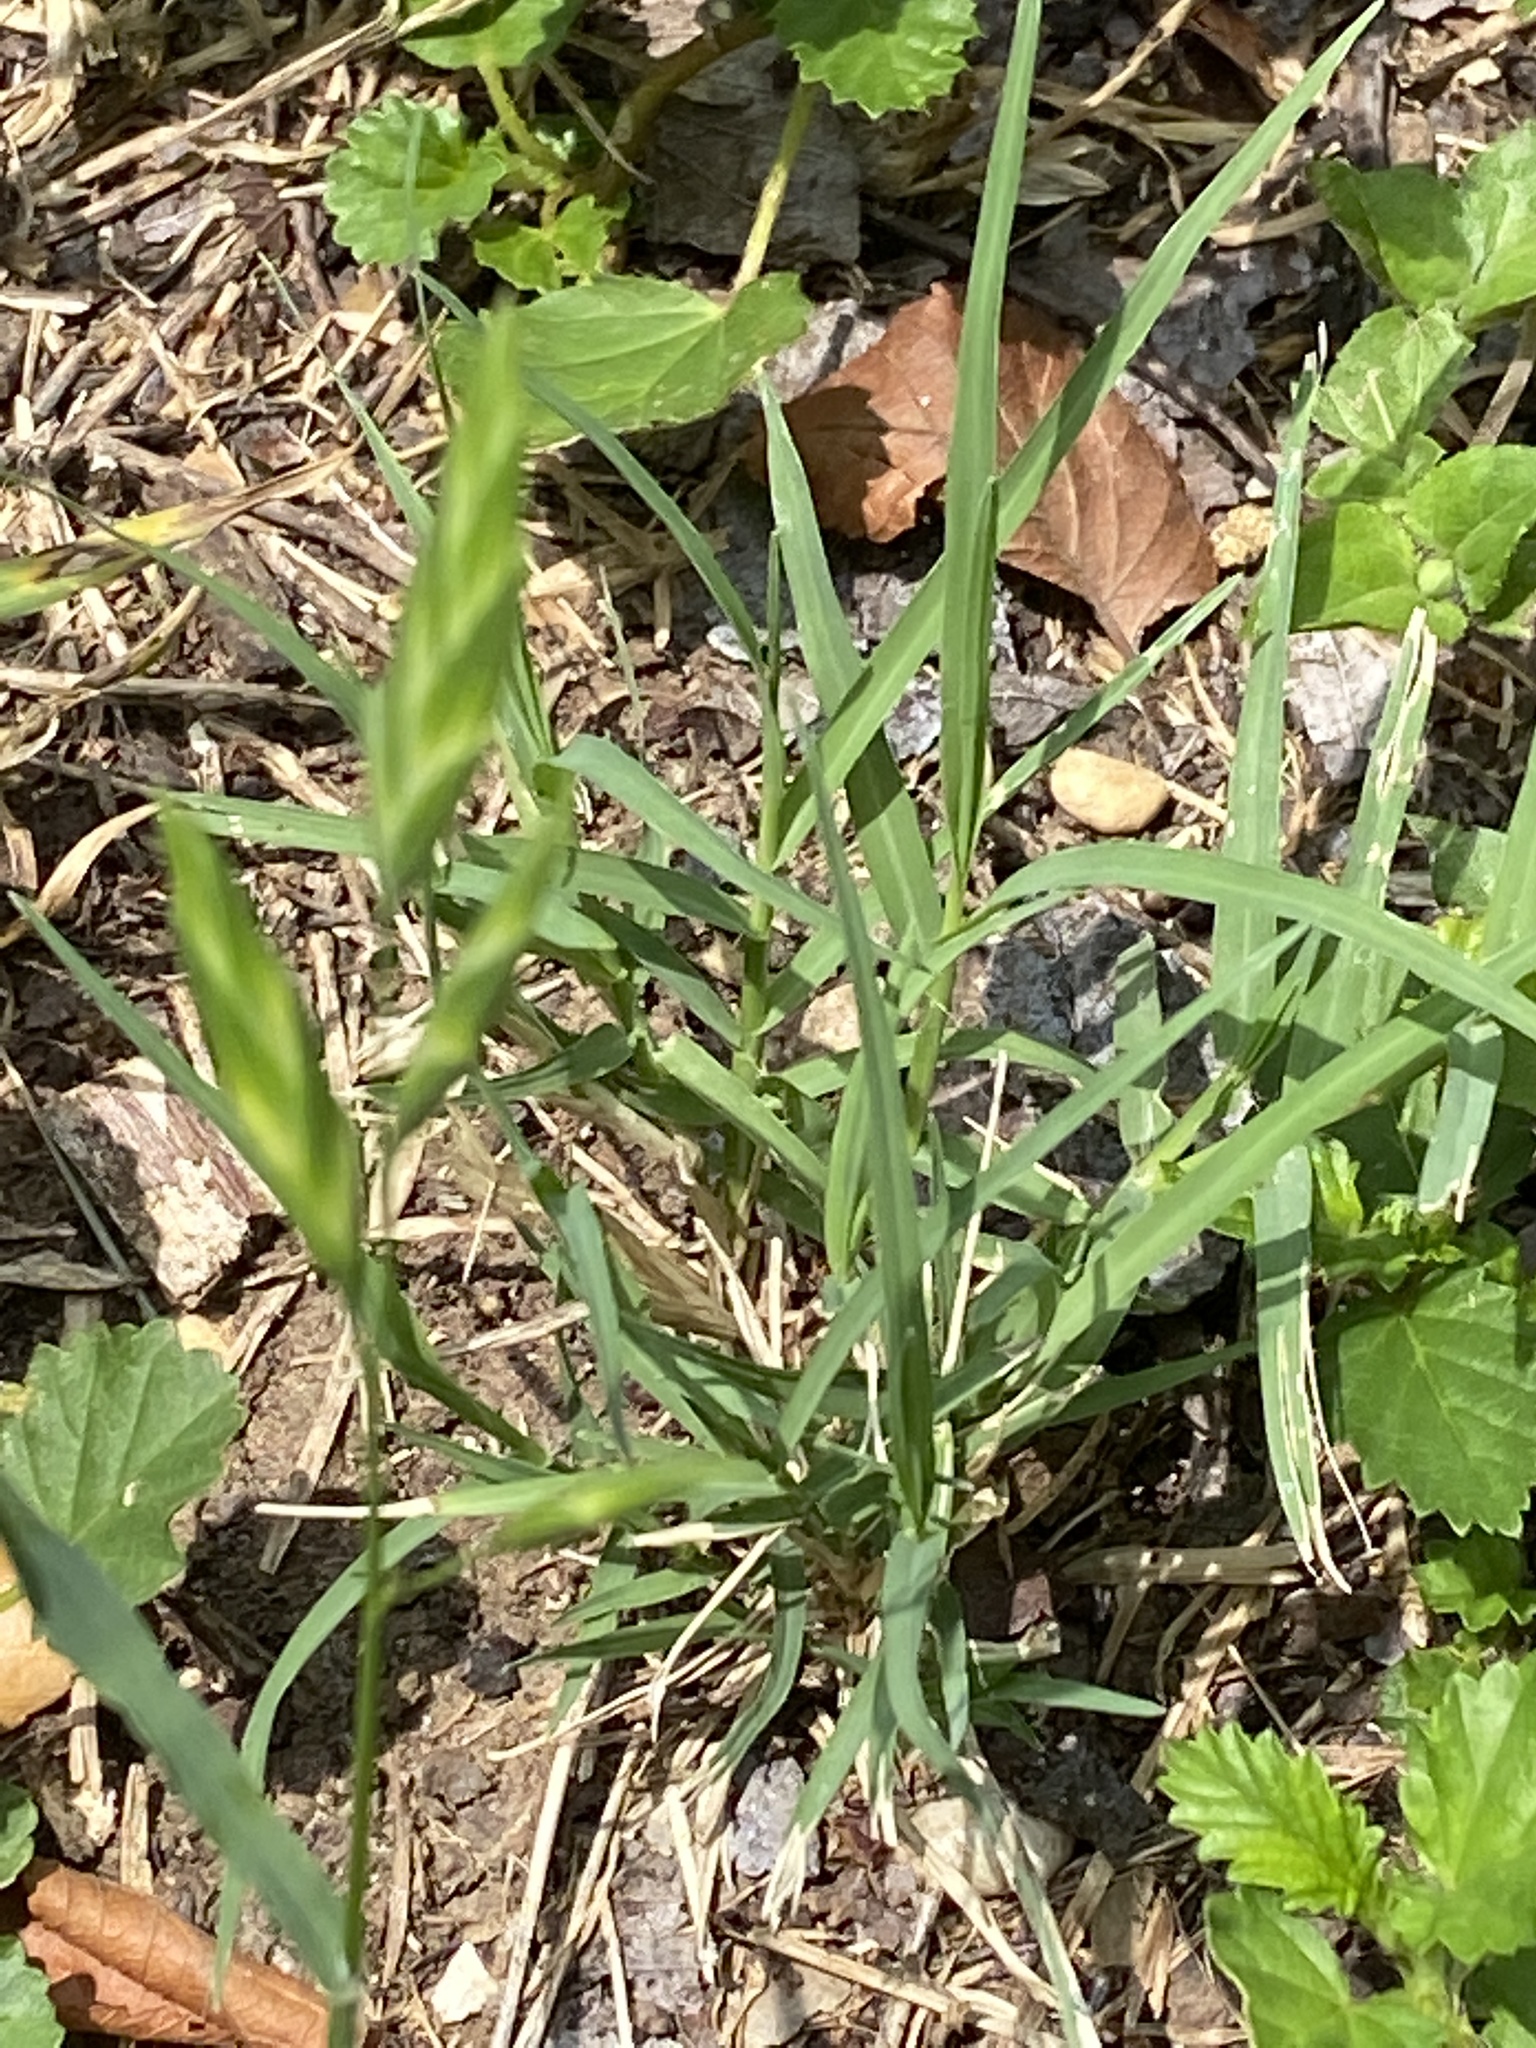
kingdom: Plantae
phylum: Tracheophyta
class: Liliopsida
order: Poales
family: Poaceae
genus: Bromus
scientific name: Bromus catharticus
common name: Rescuegrass
